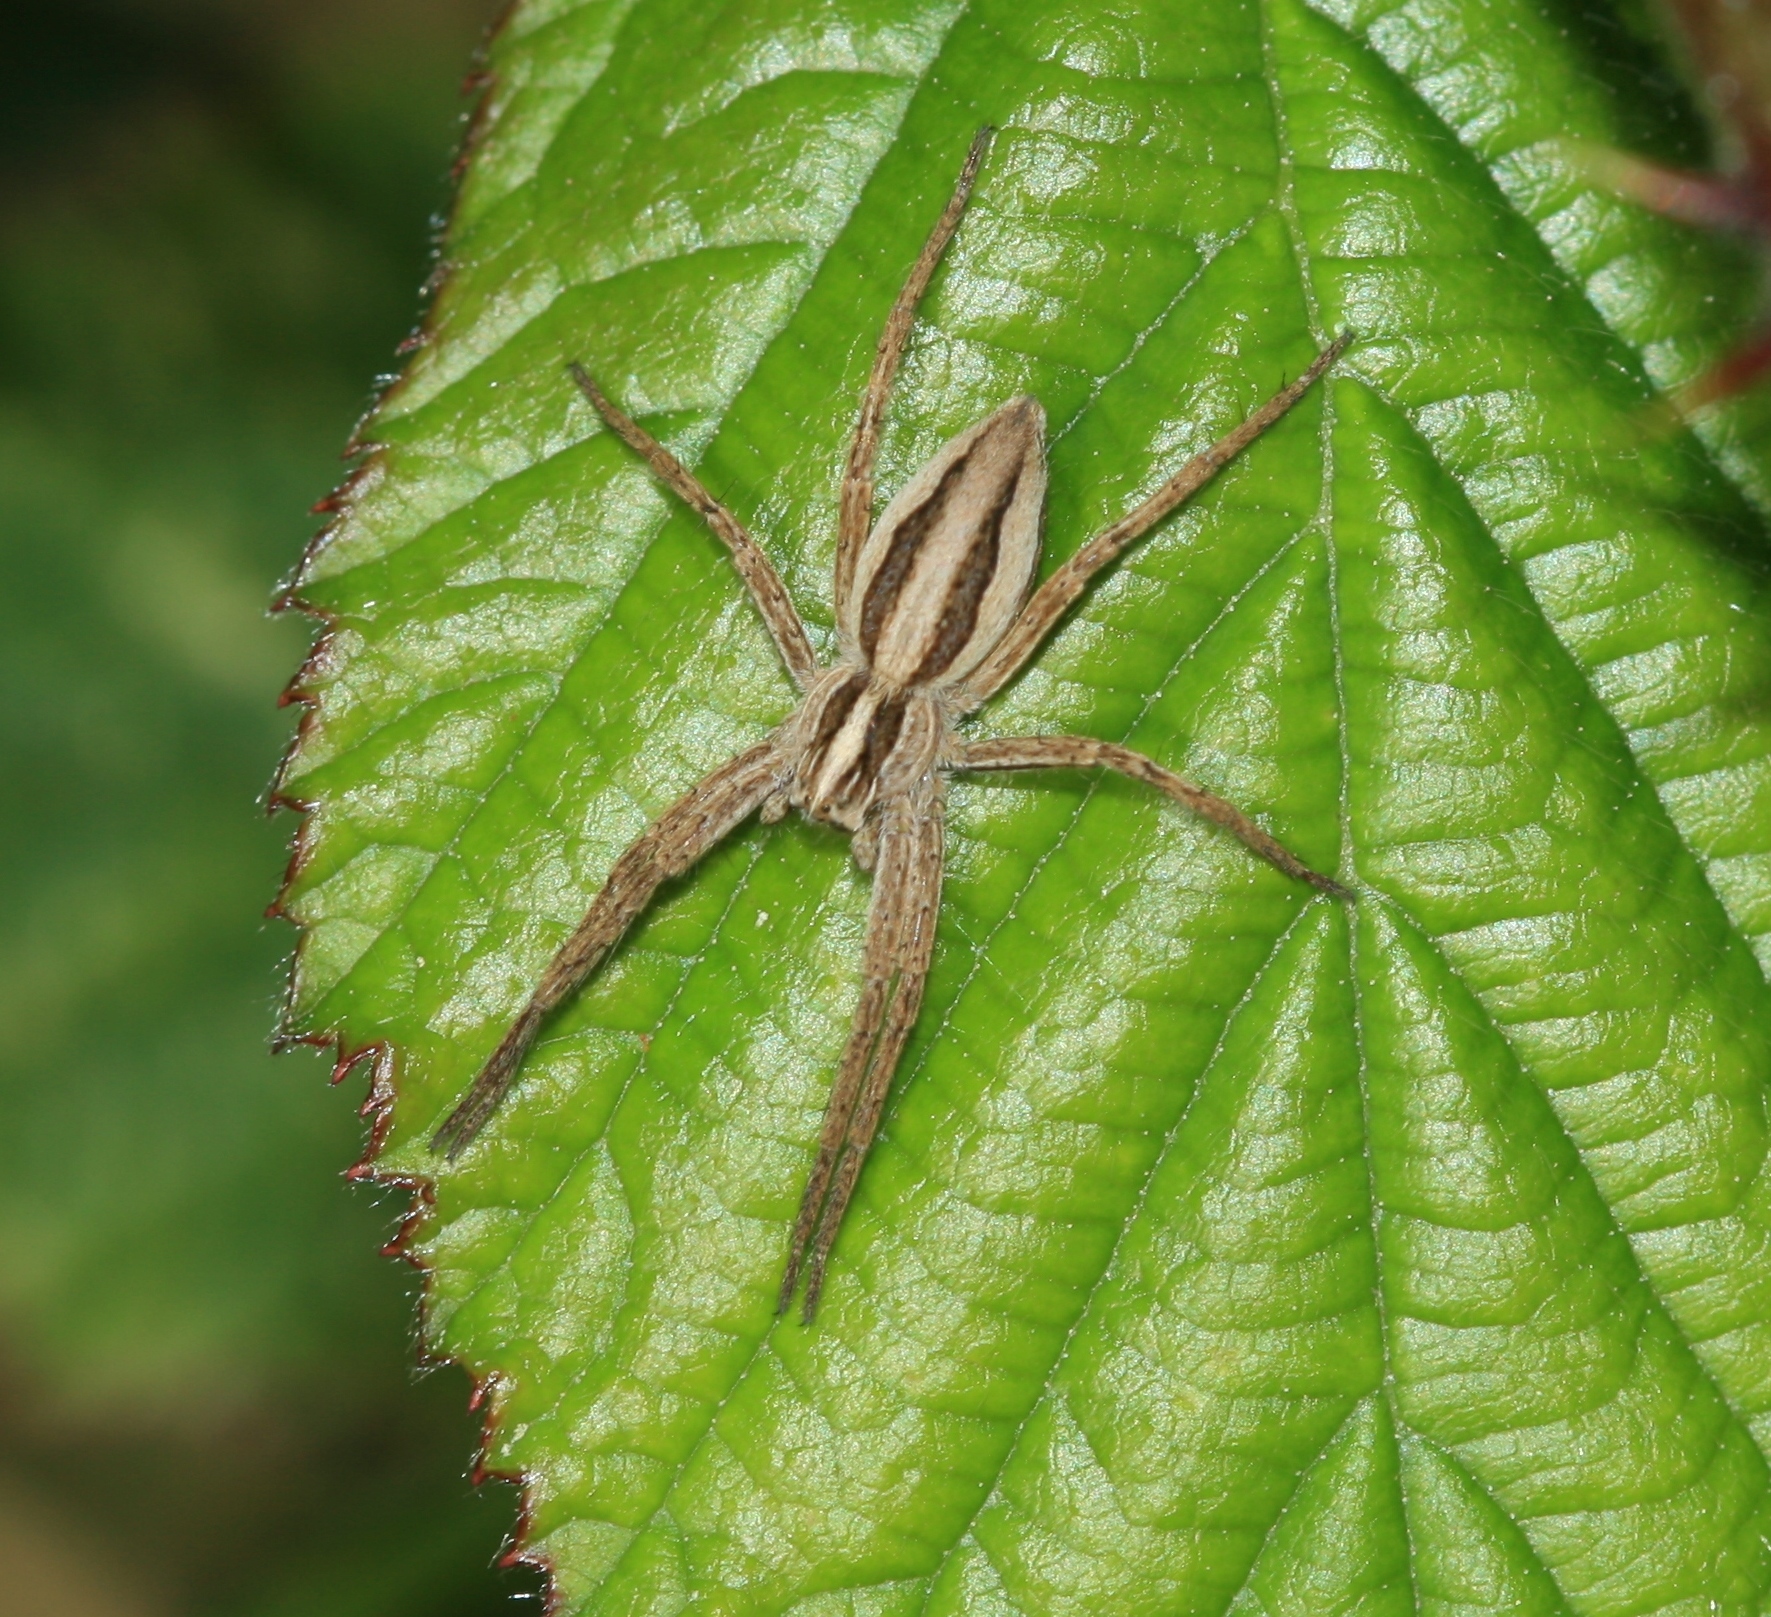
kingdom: Animalia
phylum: Arthropoda
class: Arachnida
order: Araneae
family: Pisauridae
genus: Pisaura
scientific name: Pisaura mirabilis
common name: Tent spider
